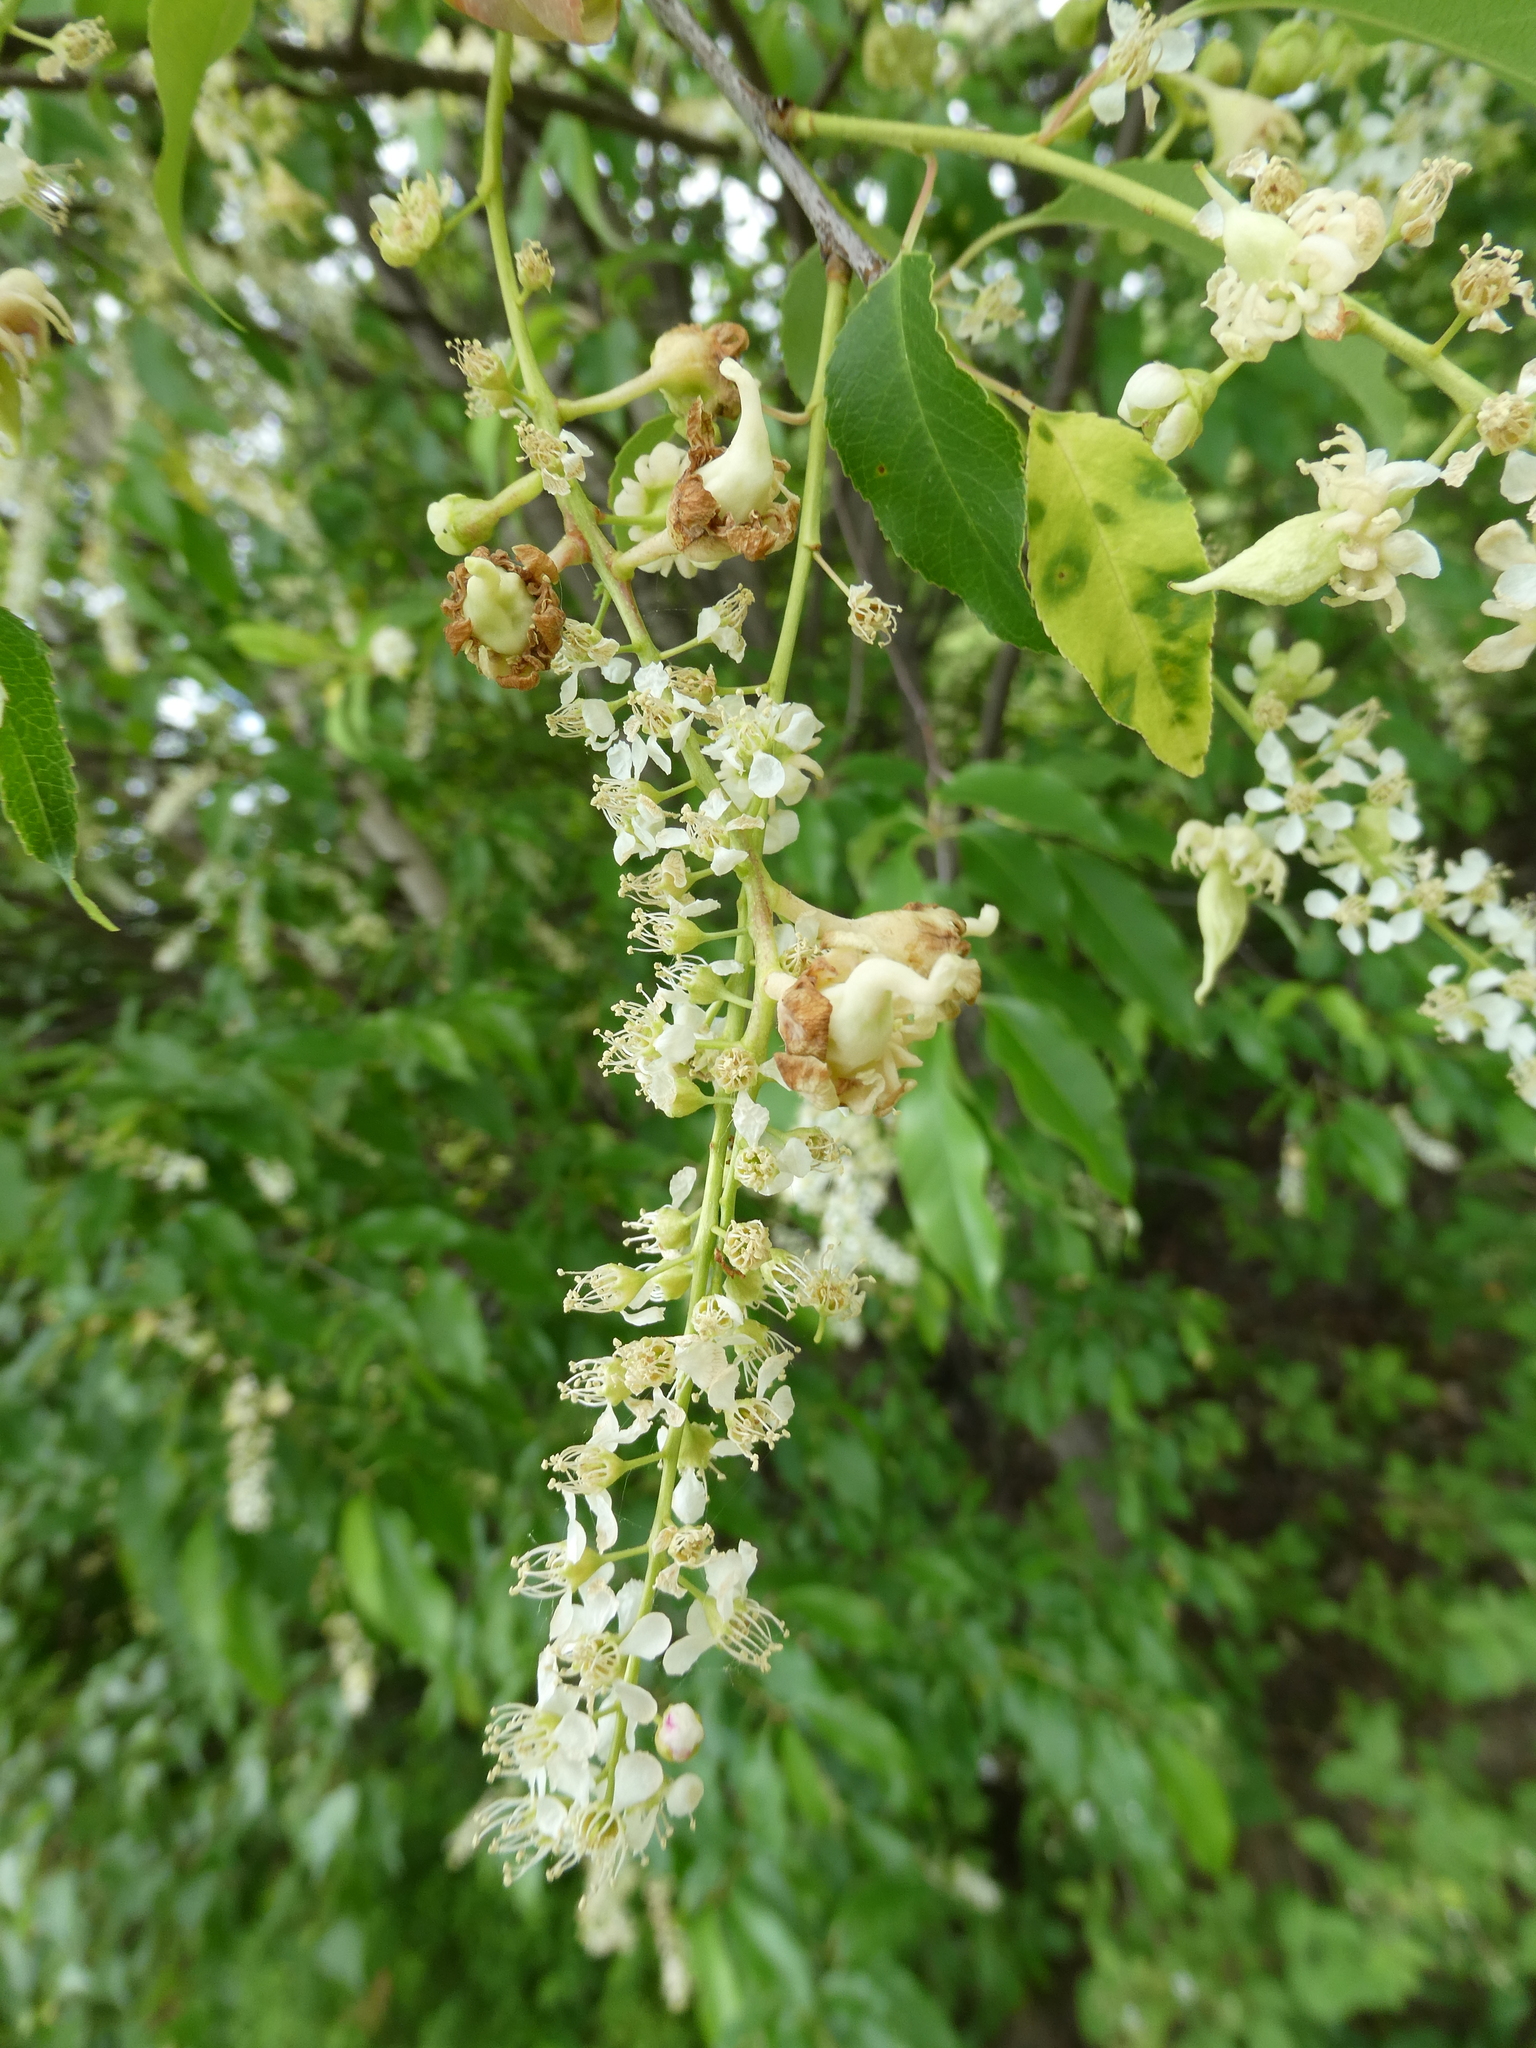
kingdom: Plantae
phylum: Tracheophyta
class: Magnoliopsida
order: Rosales
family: Rosaceae
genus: Prunus
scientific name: Prunus serotina
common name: Black cherry
